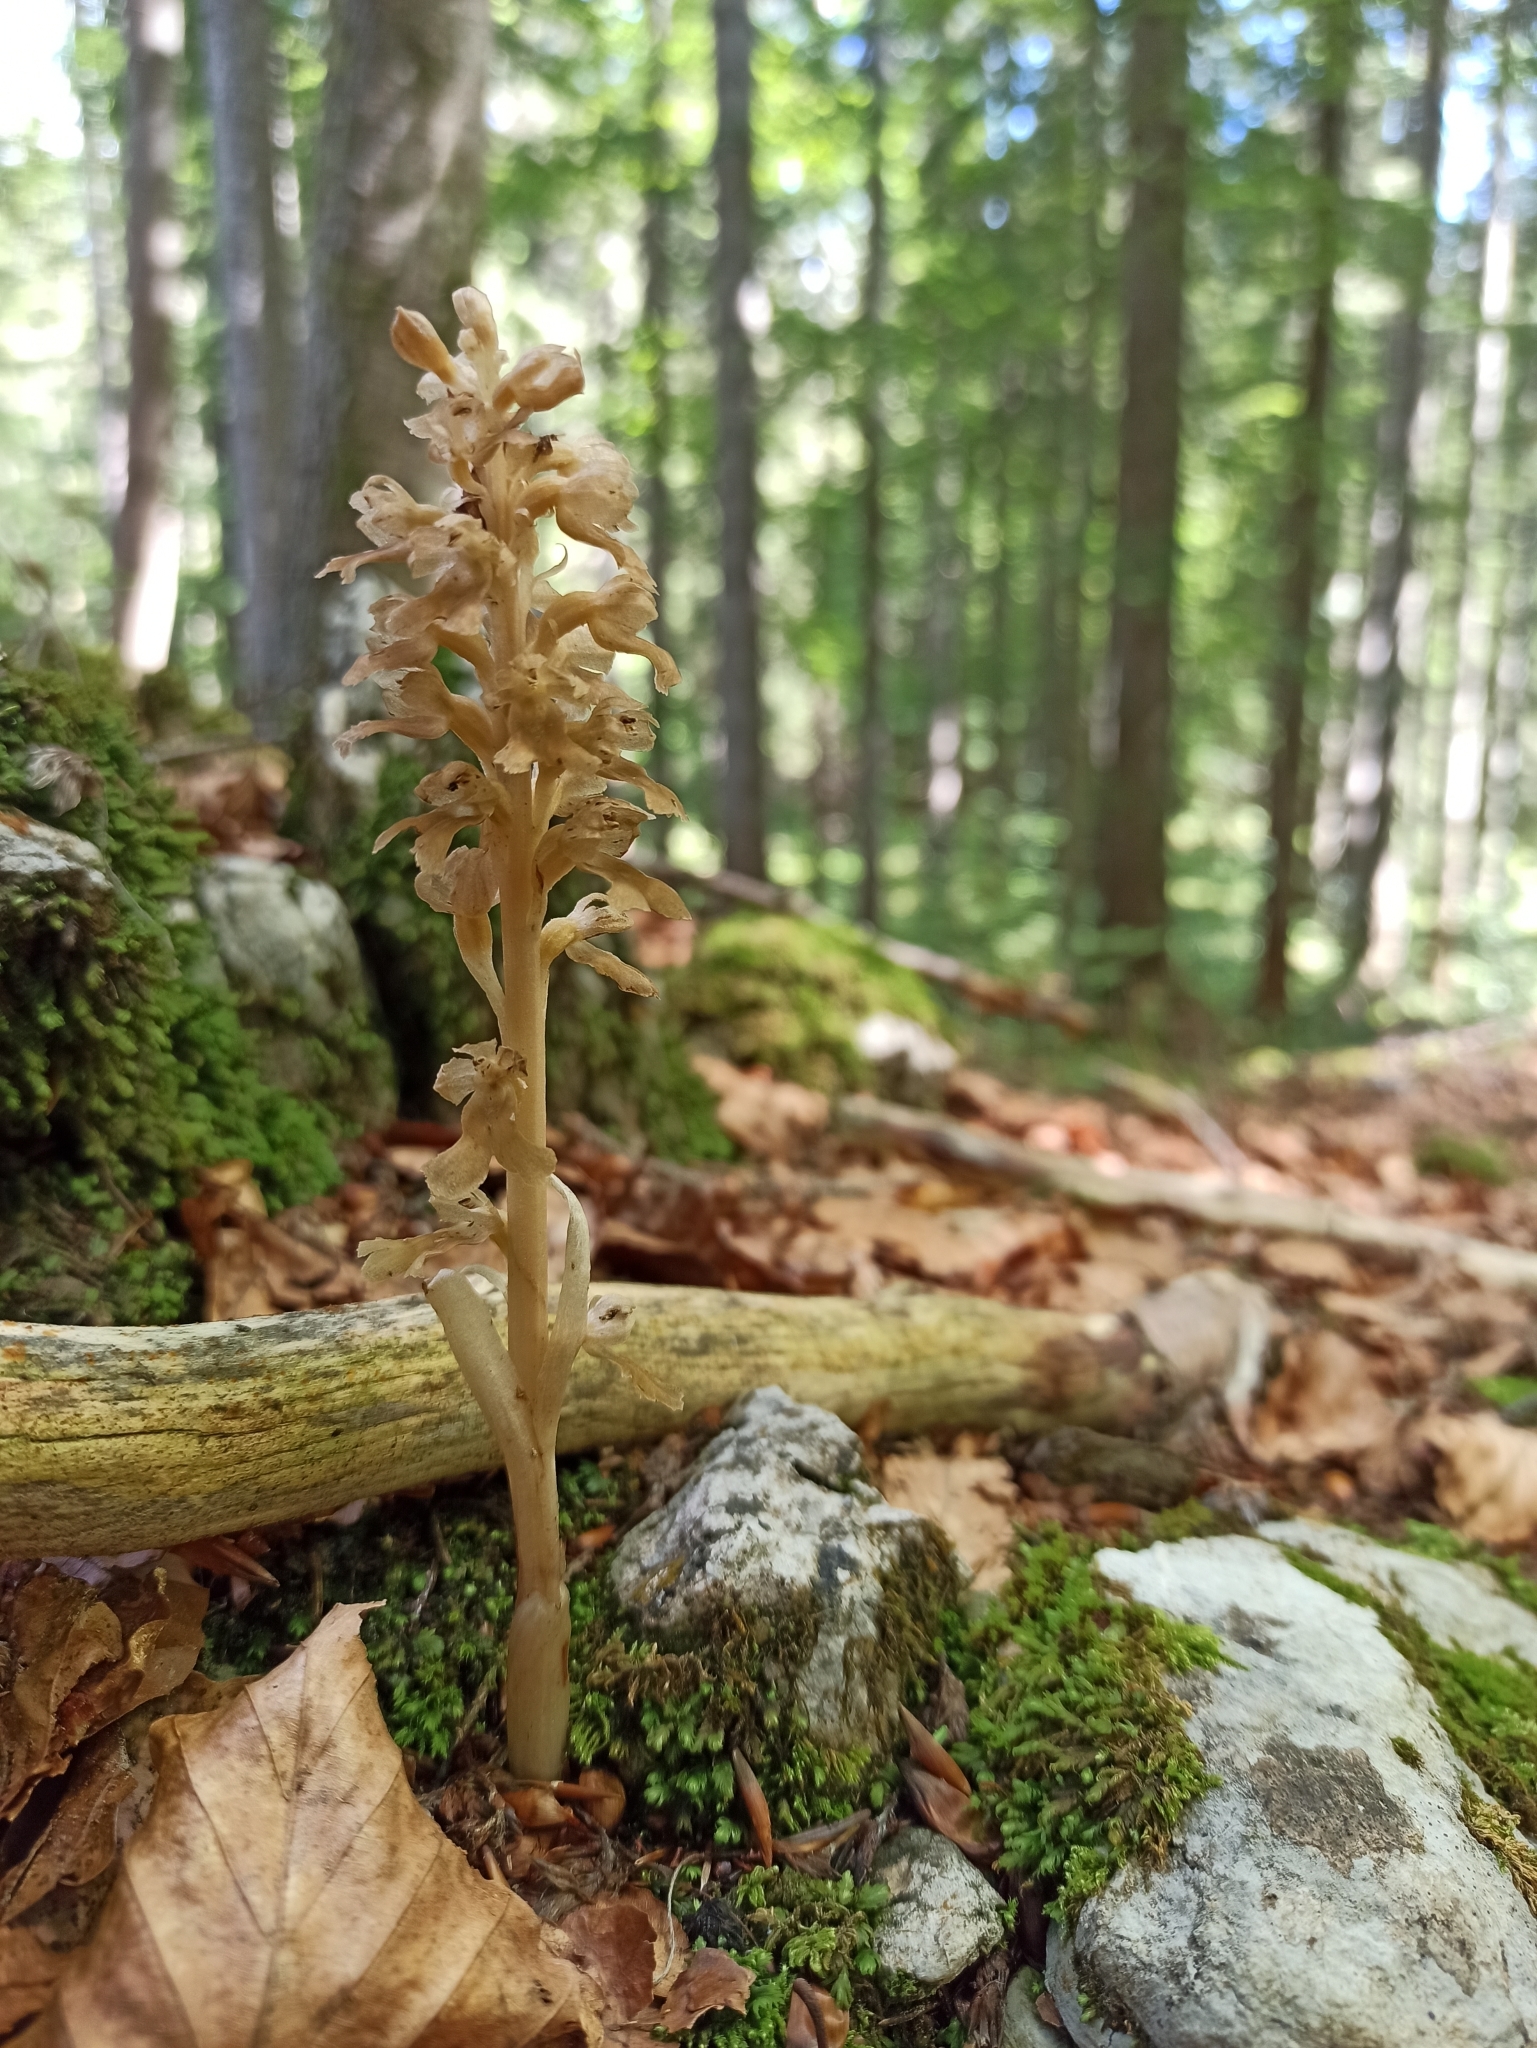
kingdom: Plantae
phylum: Tracheophyta
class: Liliopsida
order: Asparagales
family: Orchidaceae
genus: Neottia
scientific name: Neottia nidus-avis
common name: Bird's-nest orchid
